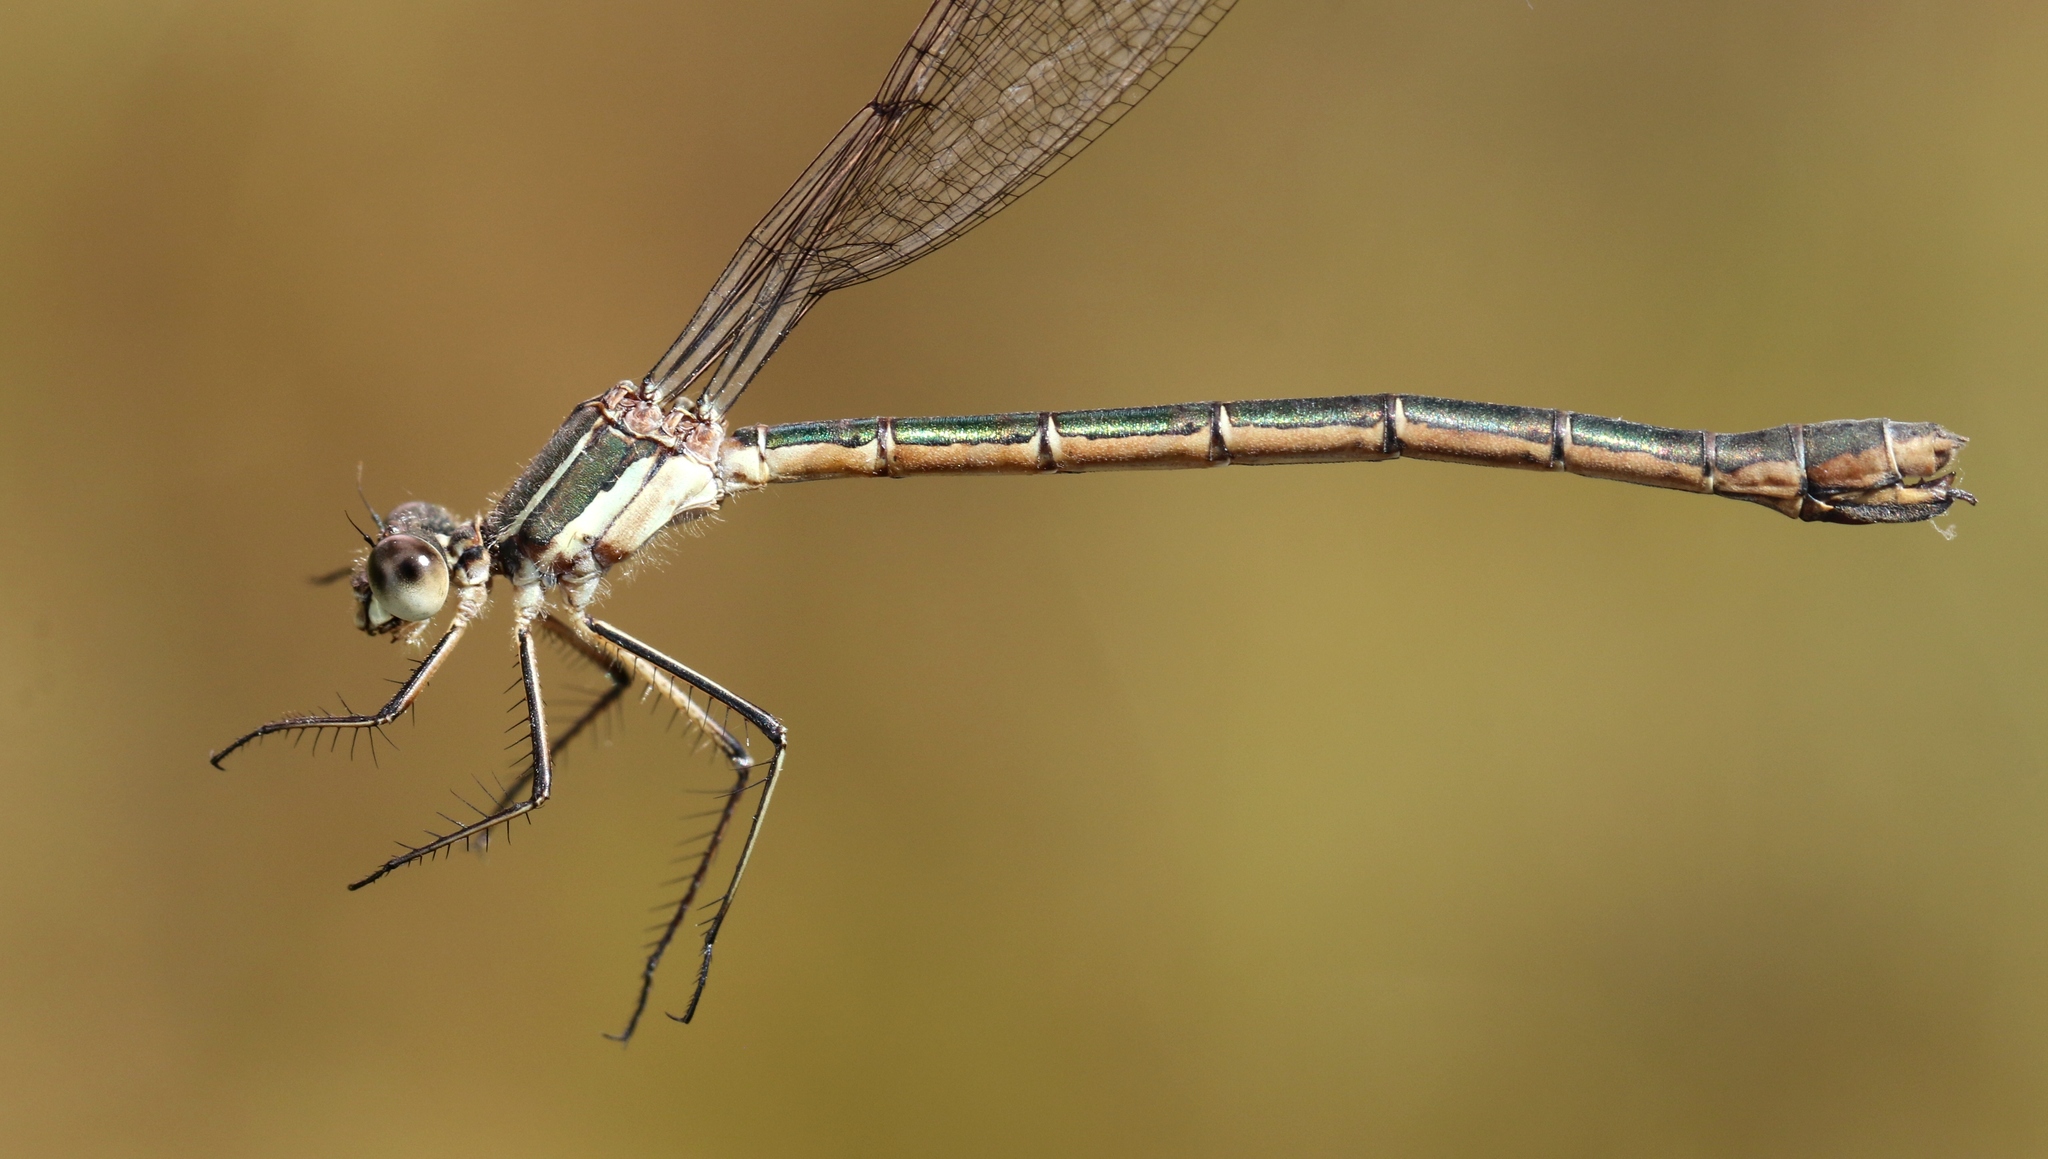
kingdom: Animalia
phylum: Arthropoda
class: Insecta
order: Odonata
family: Lestidae
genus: Lestes
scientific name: Lestes dryas
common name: Scarce emerald damselfly
